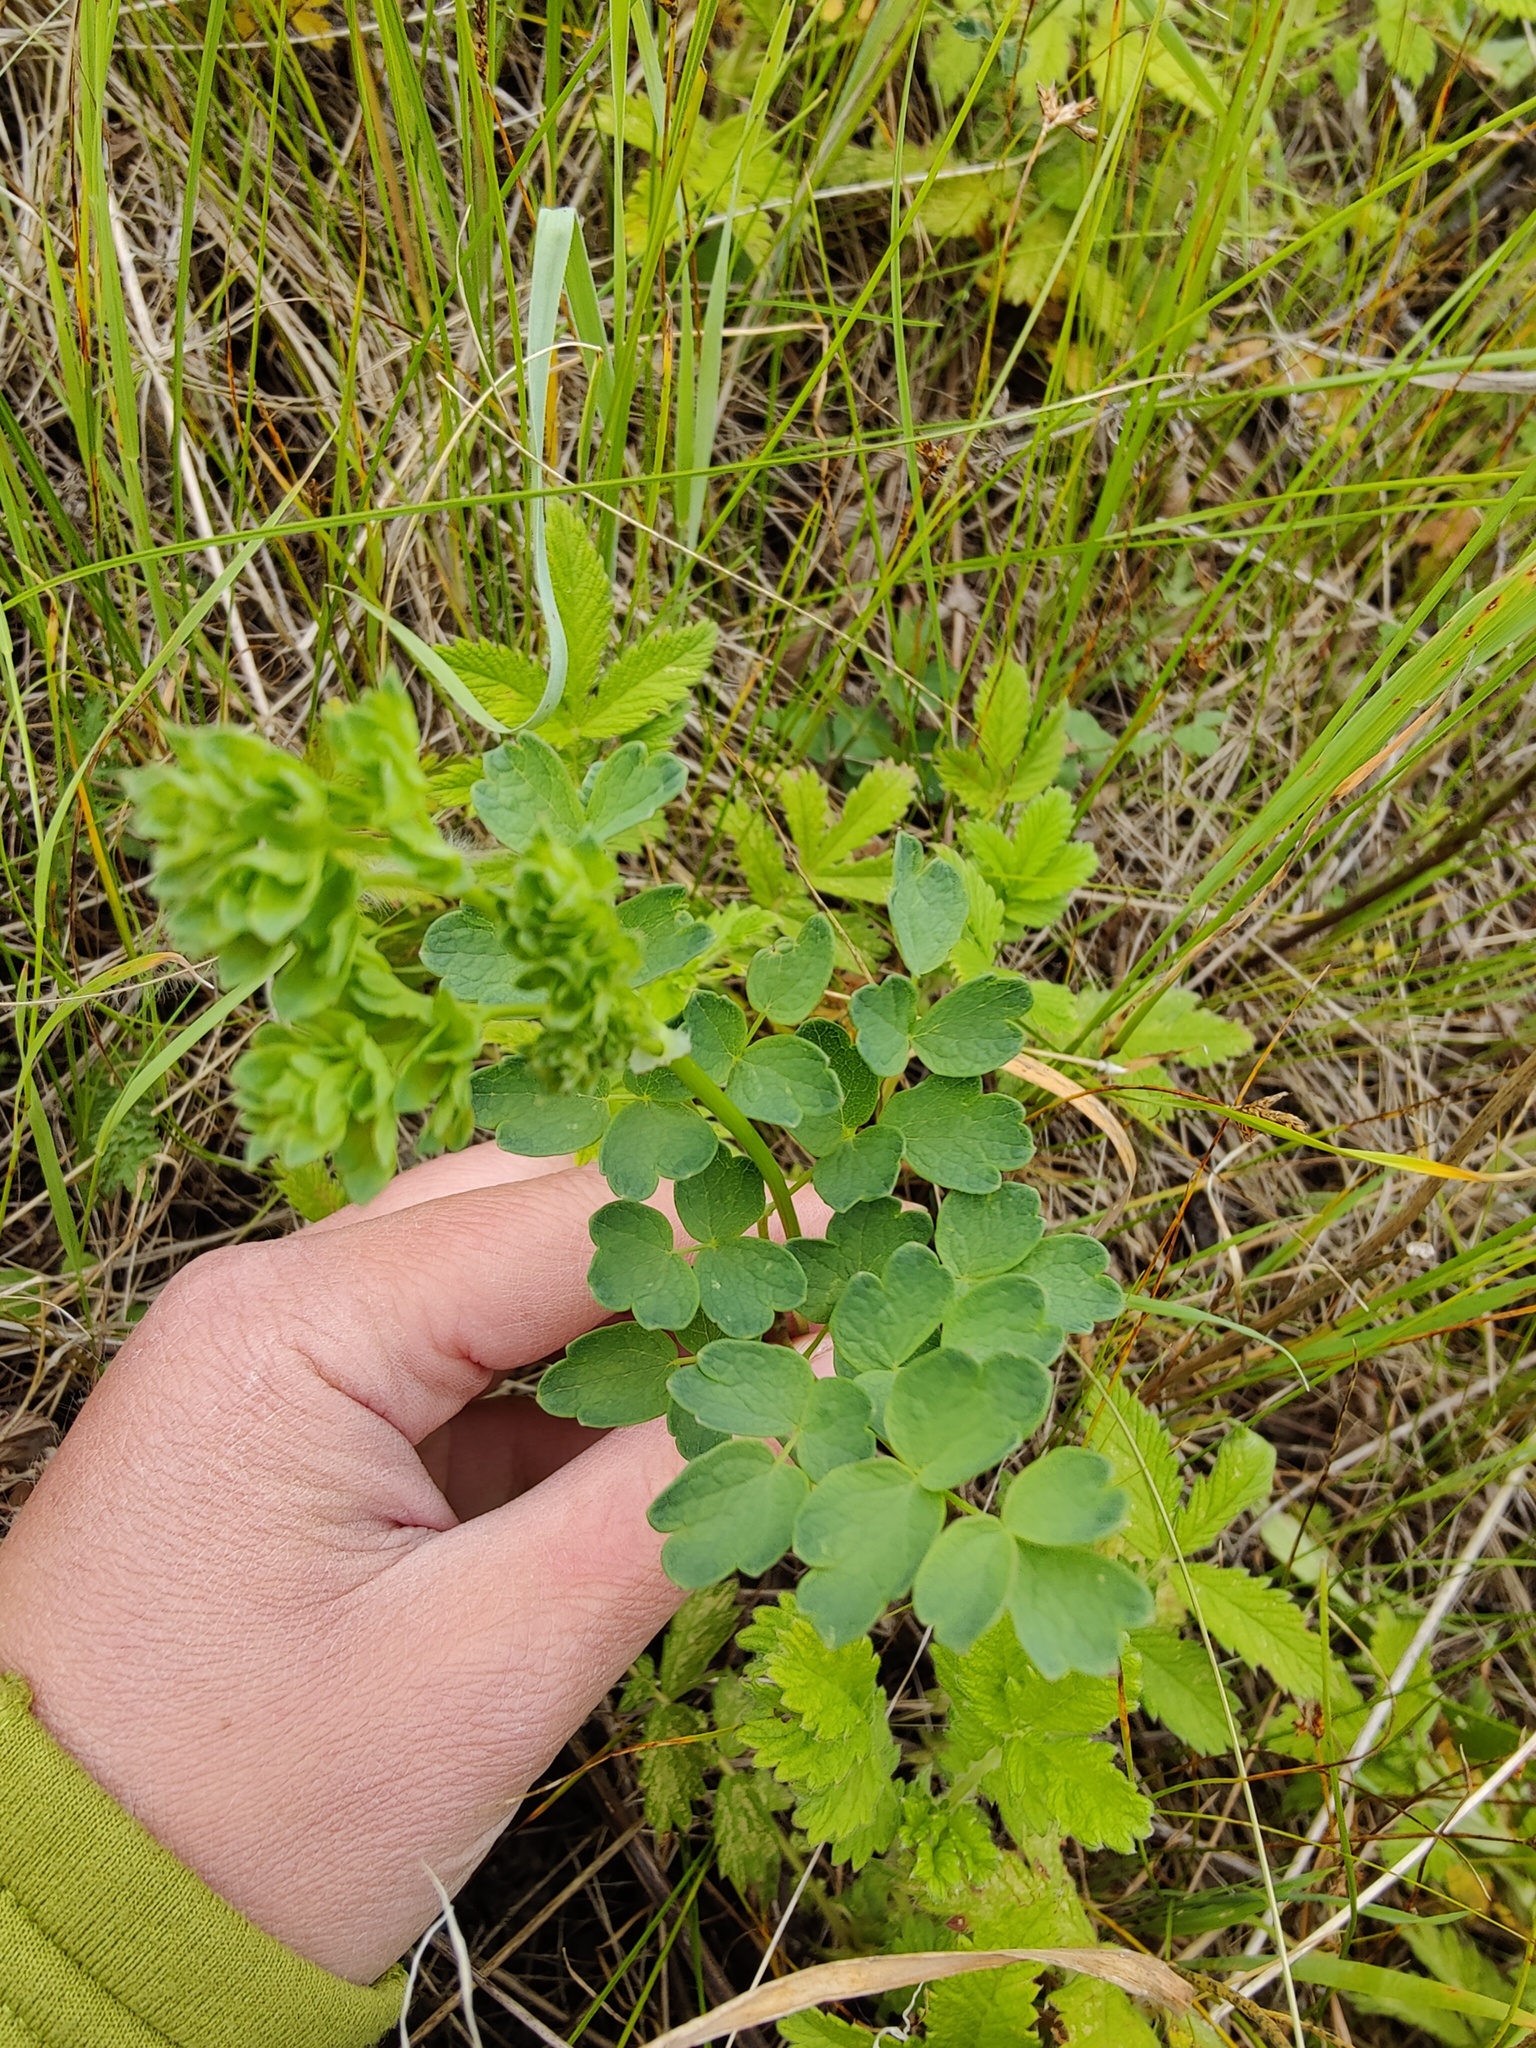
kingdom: Plantae
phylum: Tracheophyta
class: Magnoliopsida
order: Ranunculales
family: Ranunculaceae
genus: Thalictrum
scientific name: Thalictrum minus
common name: Lesser meadow-rue
